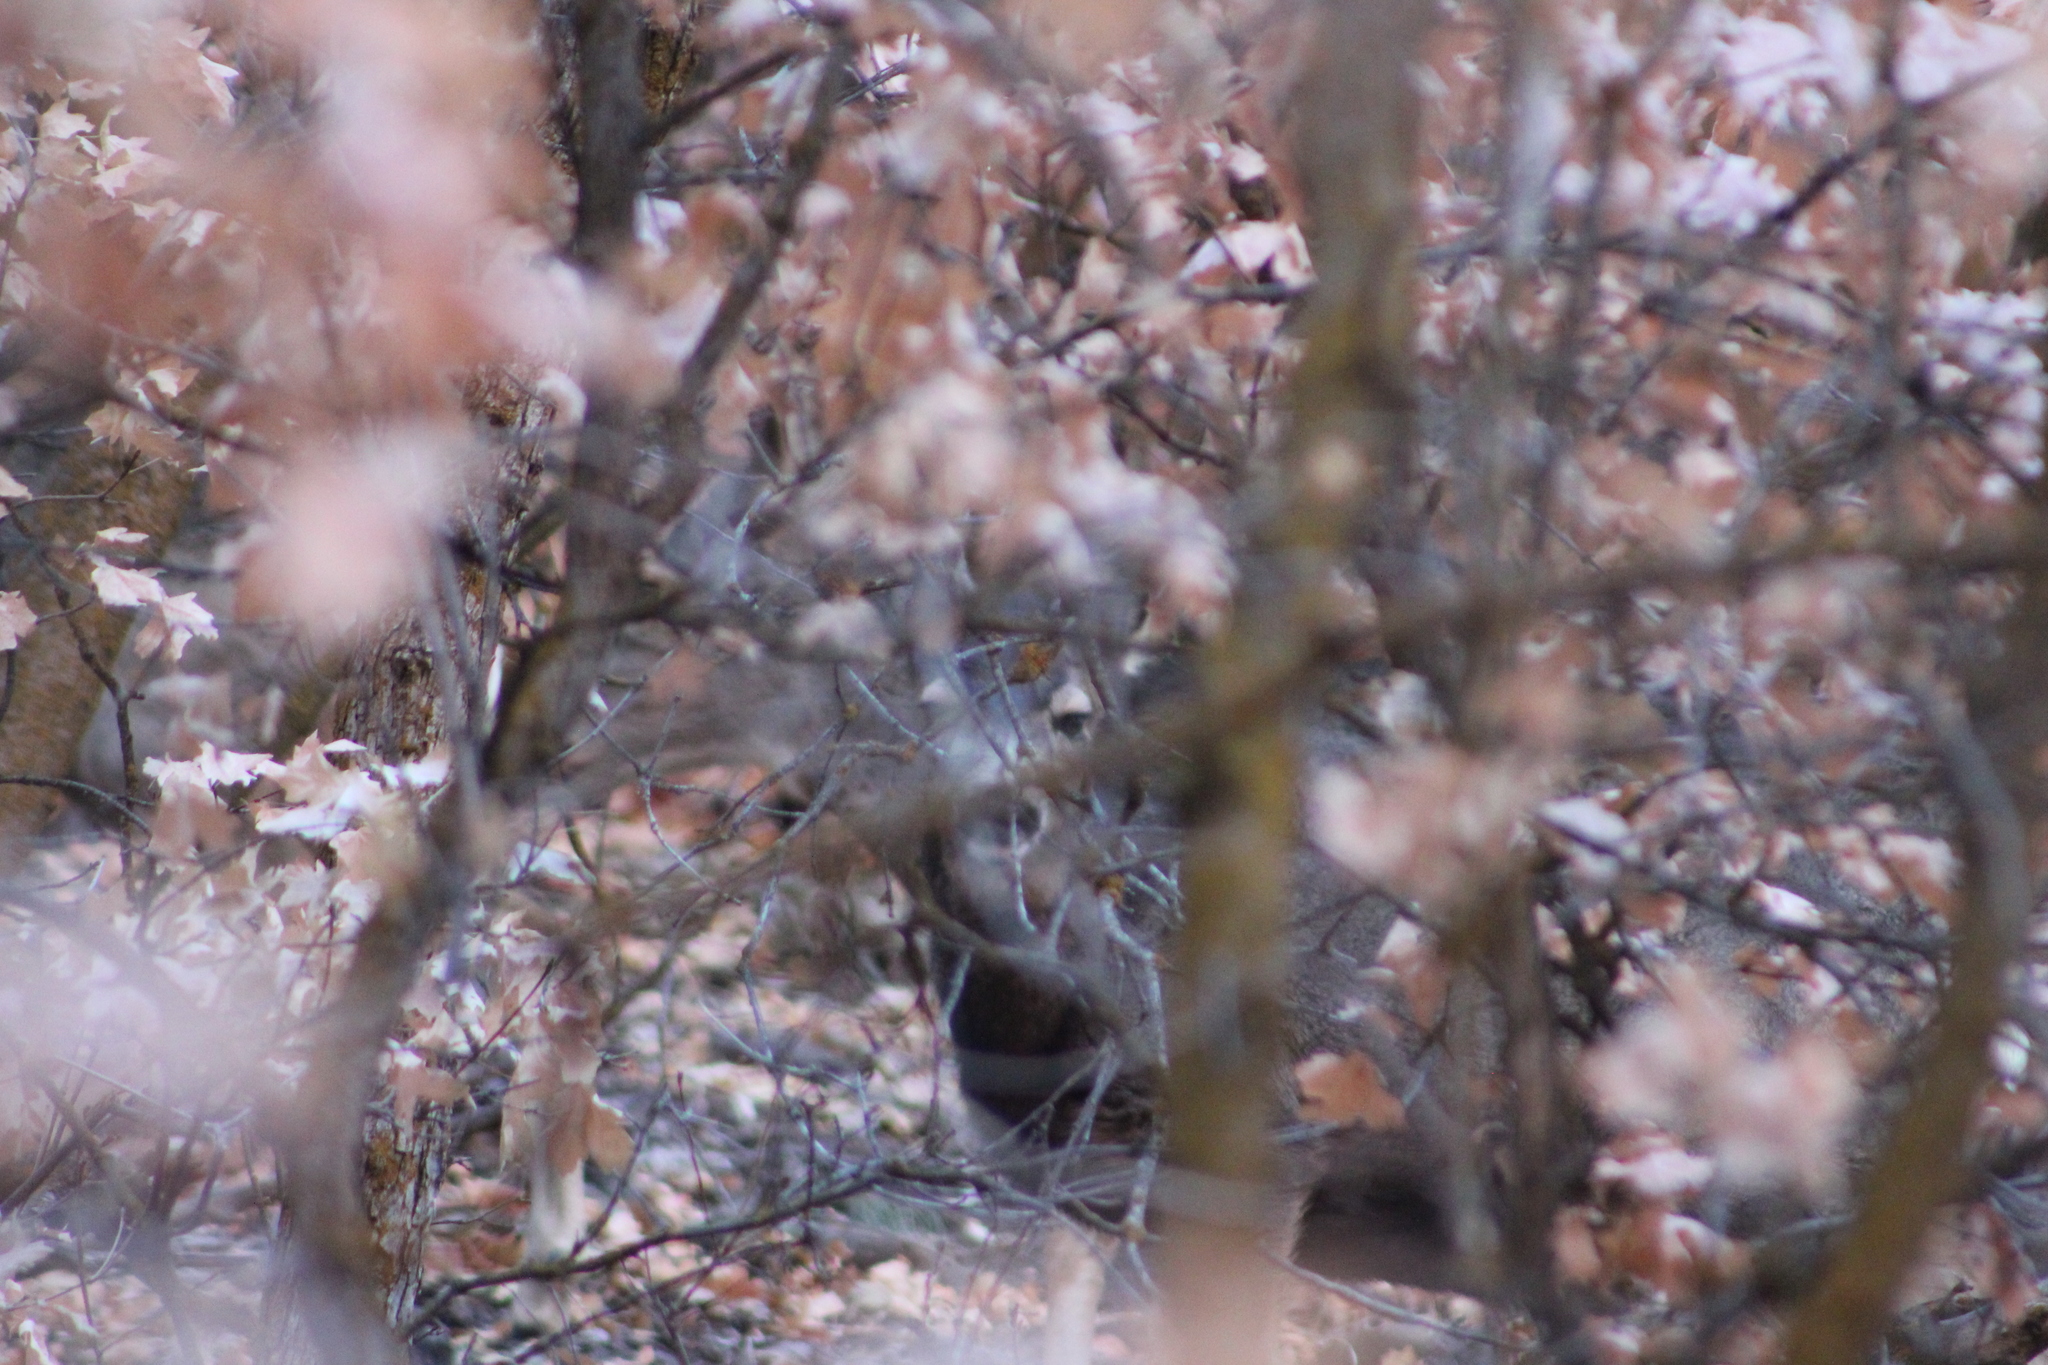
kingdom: Animalia
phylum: Chordata
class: Mammalia
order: Artiodactyla
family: Cervidae
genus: Odocoileus
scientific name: Odocoileus hemionus
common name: Mule deer
